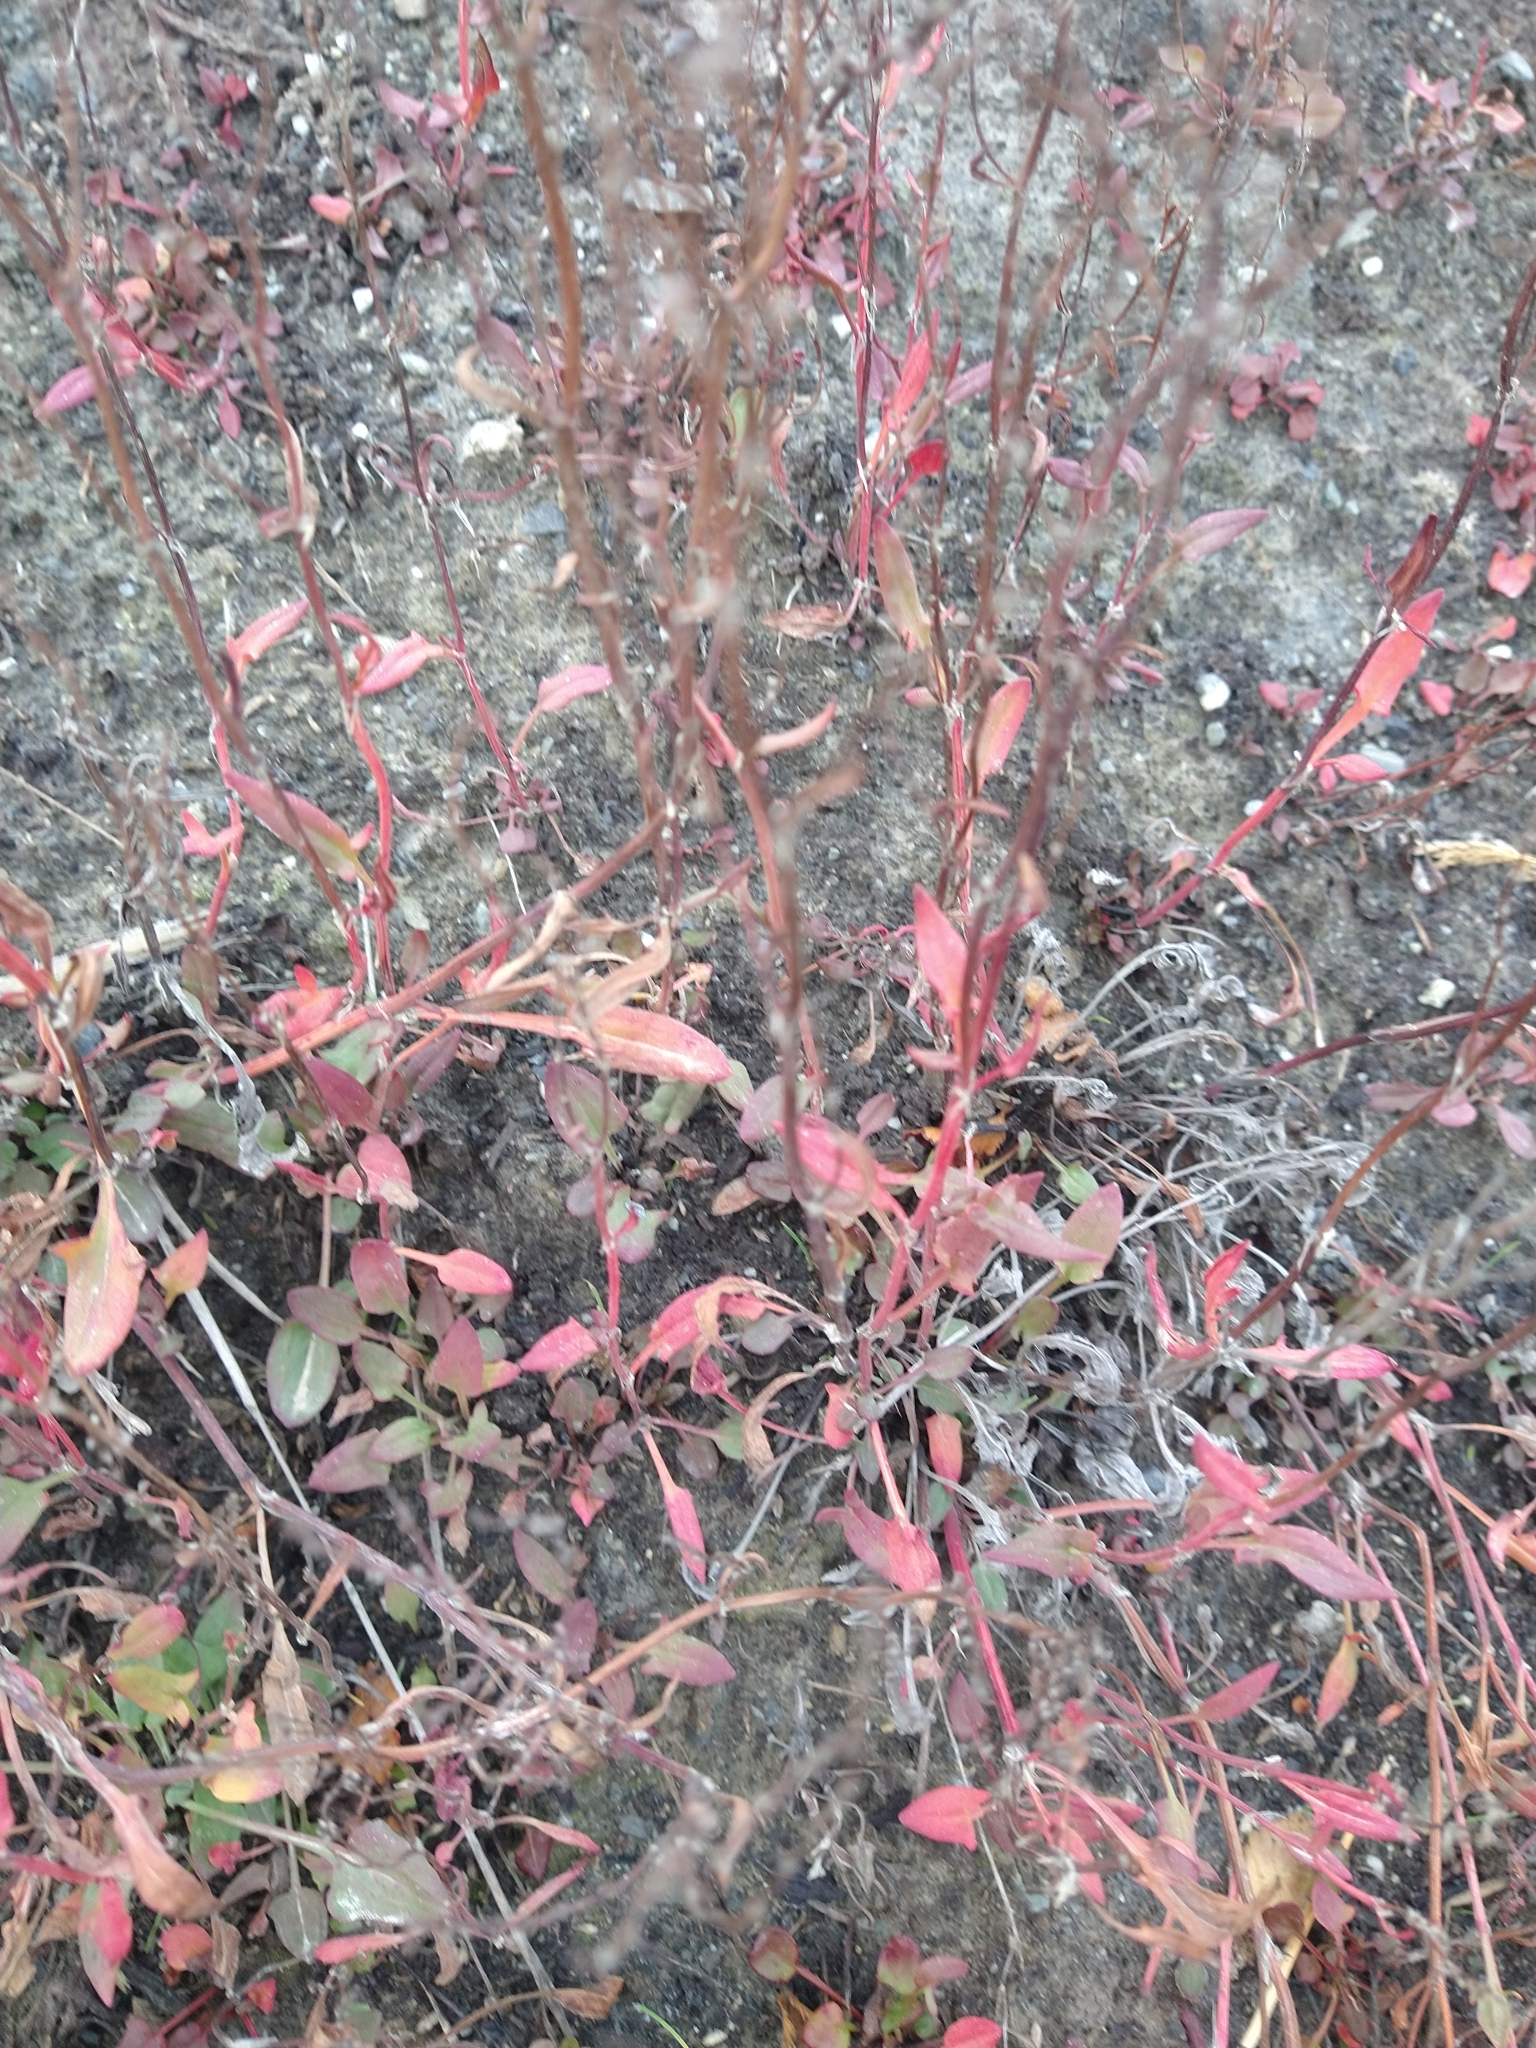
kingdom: Plantae
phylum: Tracheophyta
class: Magnoliopsida
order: Caryophyllales
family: Polygonaceae
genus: Rumex
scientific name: Rumex acetosella
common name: Common sheep sorrel
